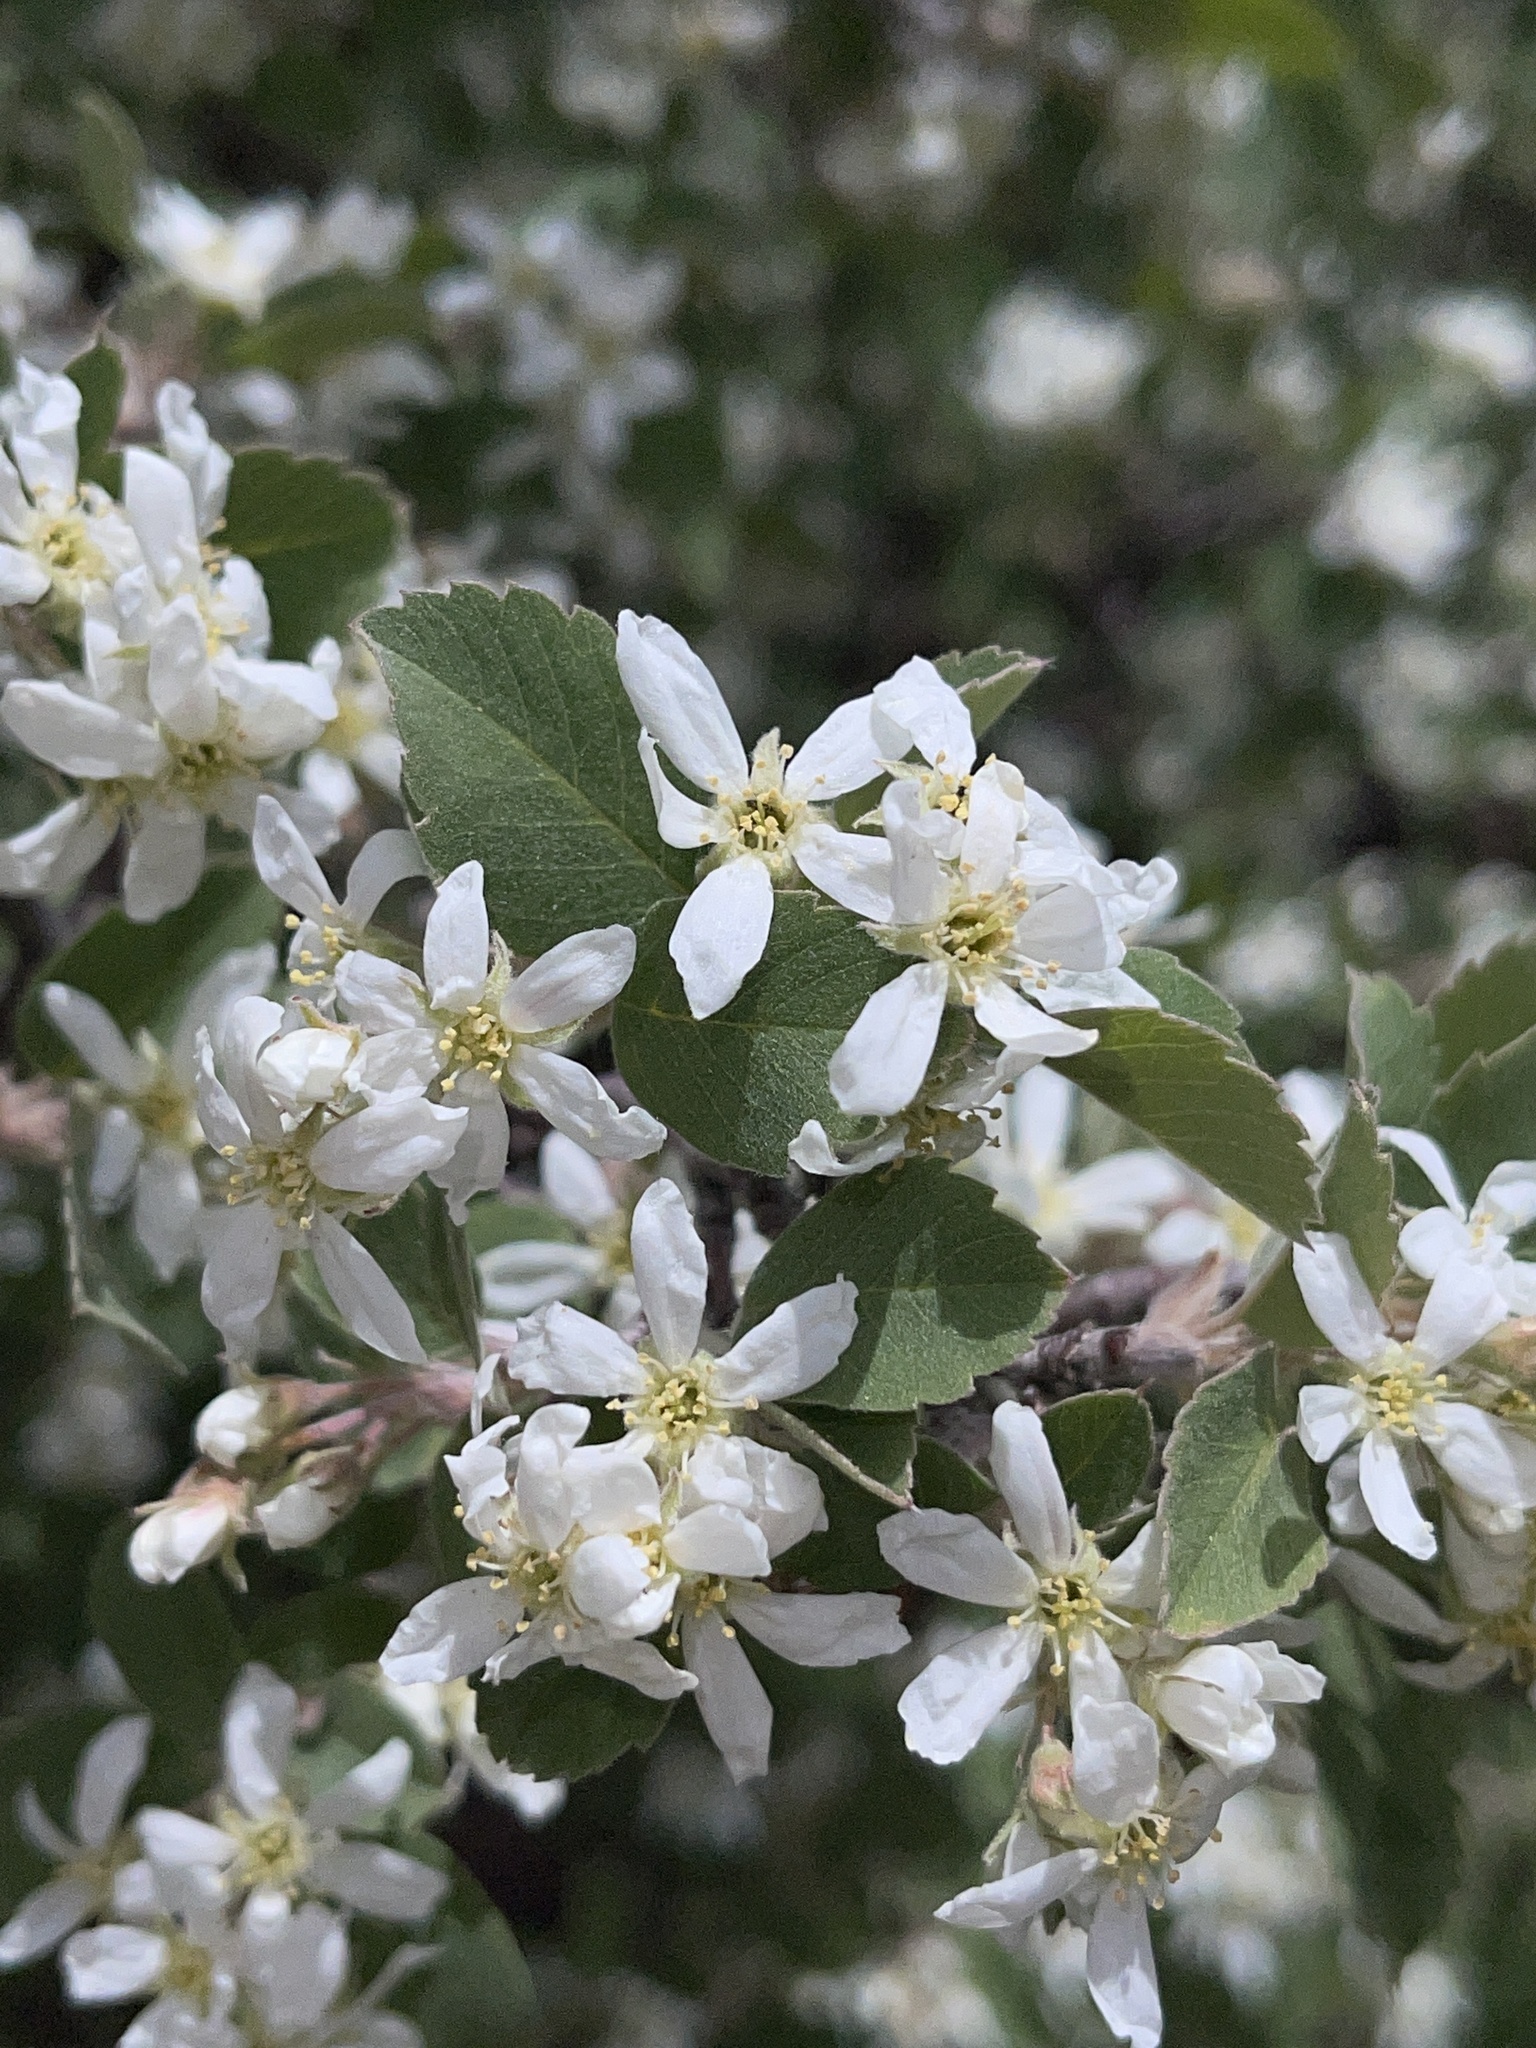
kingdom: Plantae
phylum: Tracheophyta
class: Magnoliopsida
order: Rosales
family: Rosaceae
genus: Amelanchier
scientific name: Amelanchier utahensis
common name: Utah serviceberry
